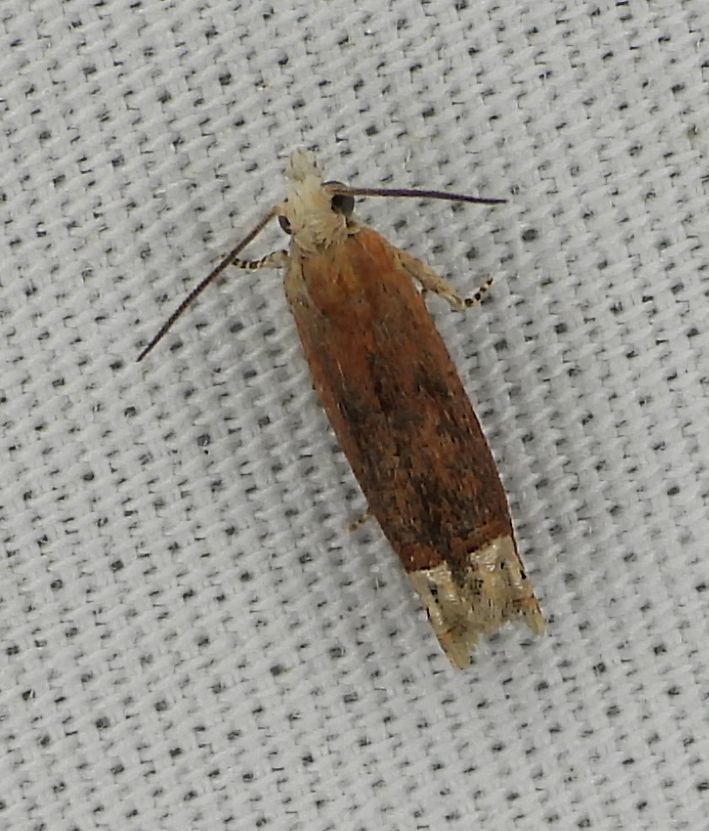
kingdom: Animalia
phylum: Arthropoda
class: Insecta
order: Lepidoptera
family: Tortricidae
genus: Eucosma
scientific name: Eucosma raracana
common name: Reddish eucosma moth
